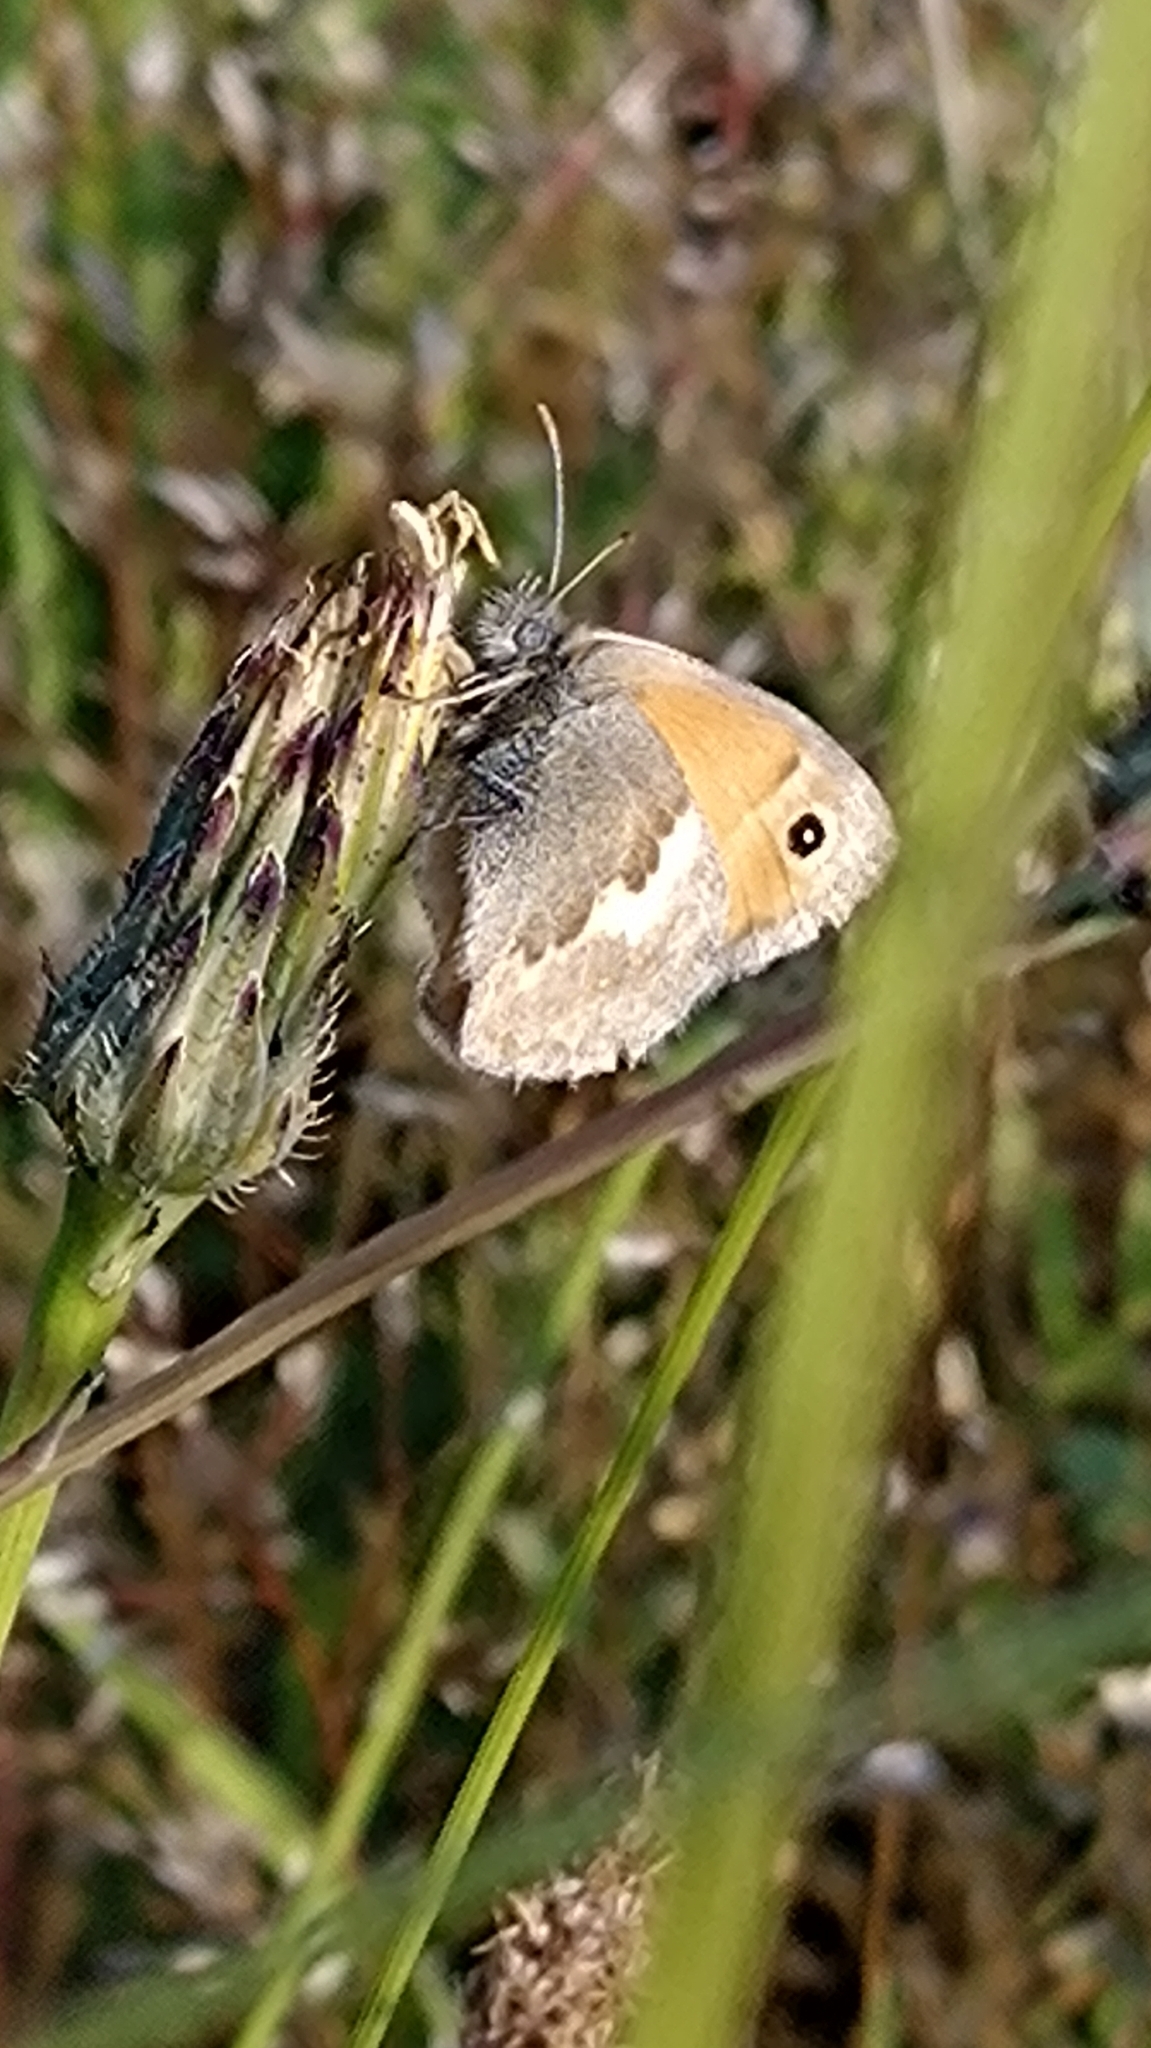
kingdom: Animalia
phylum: Arthropoda
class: Insecta
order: Lepidoptera
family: Nymphalidae
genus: Coenonympha
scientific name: Coenonympha pamphilus
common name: Small heath
